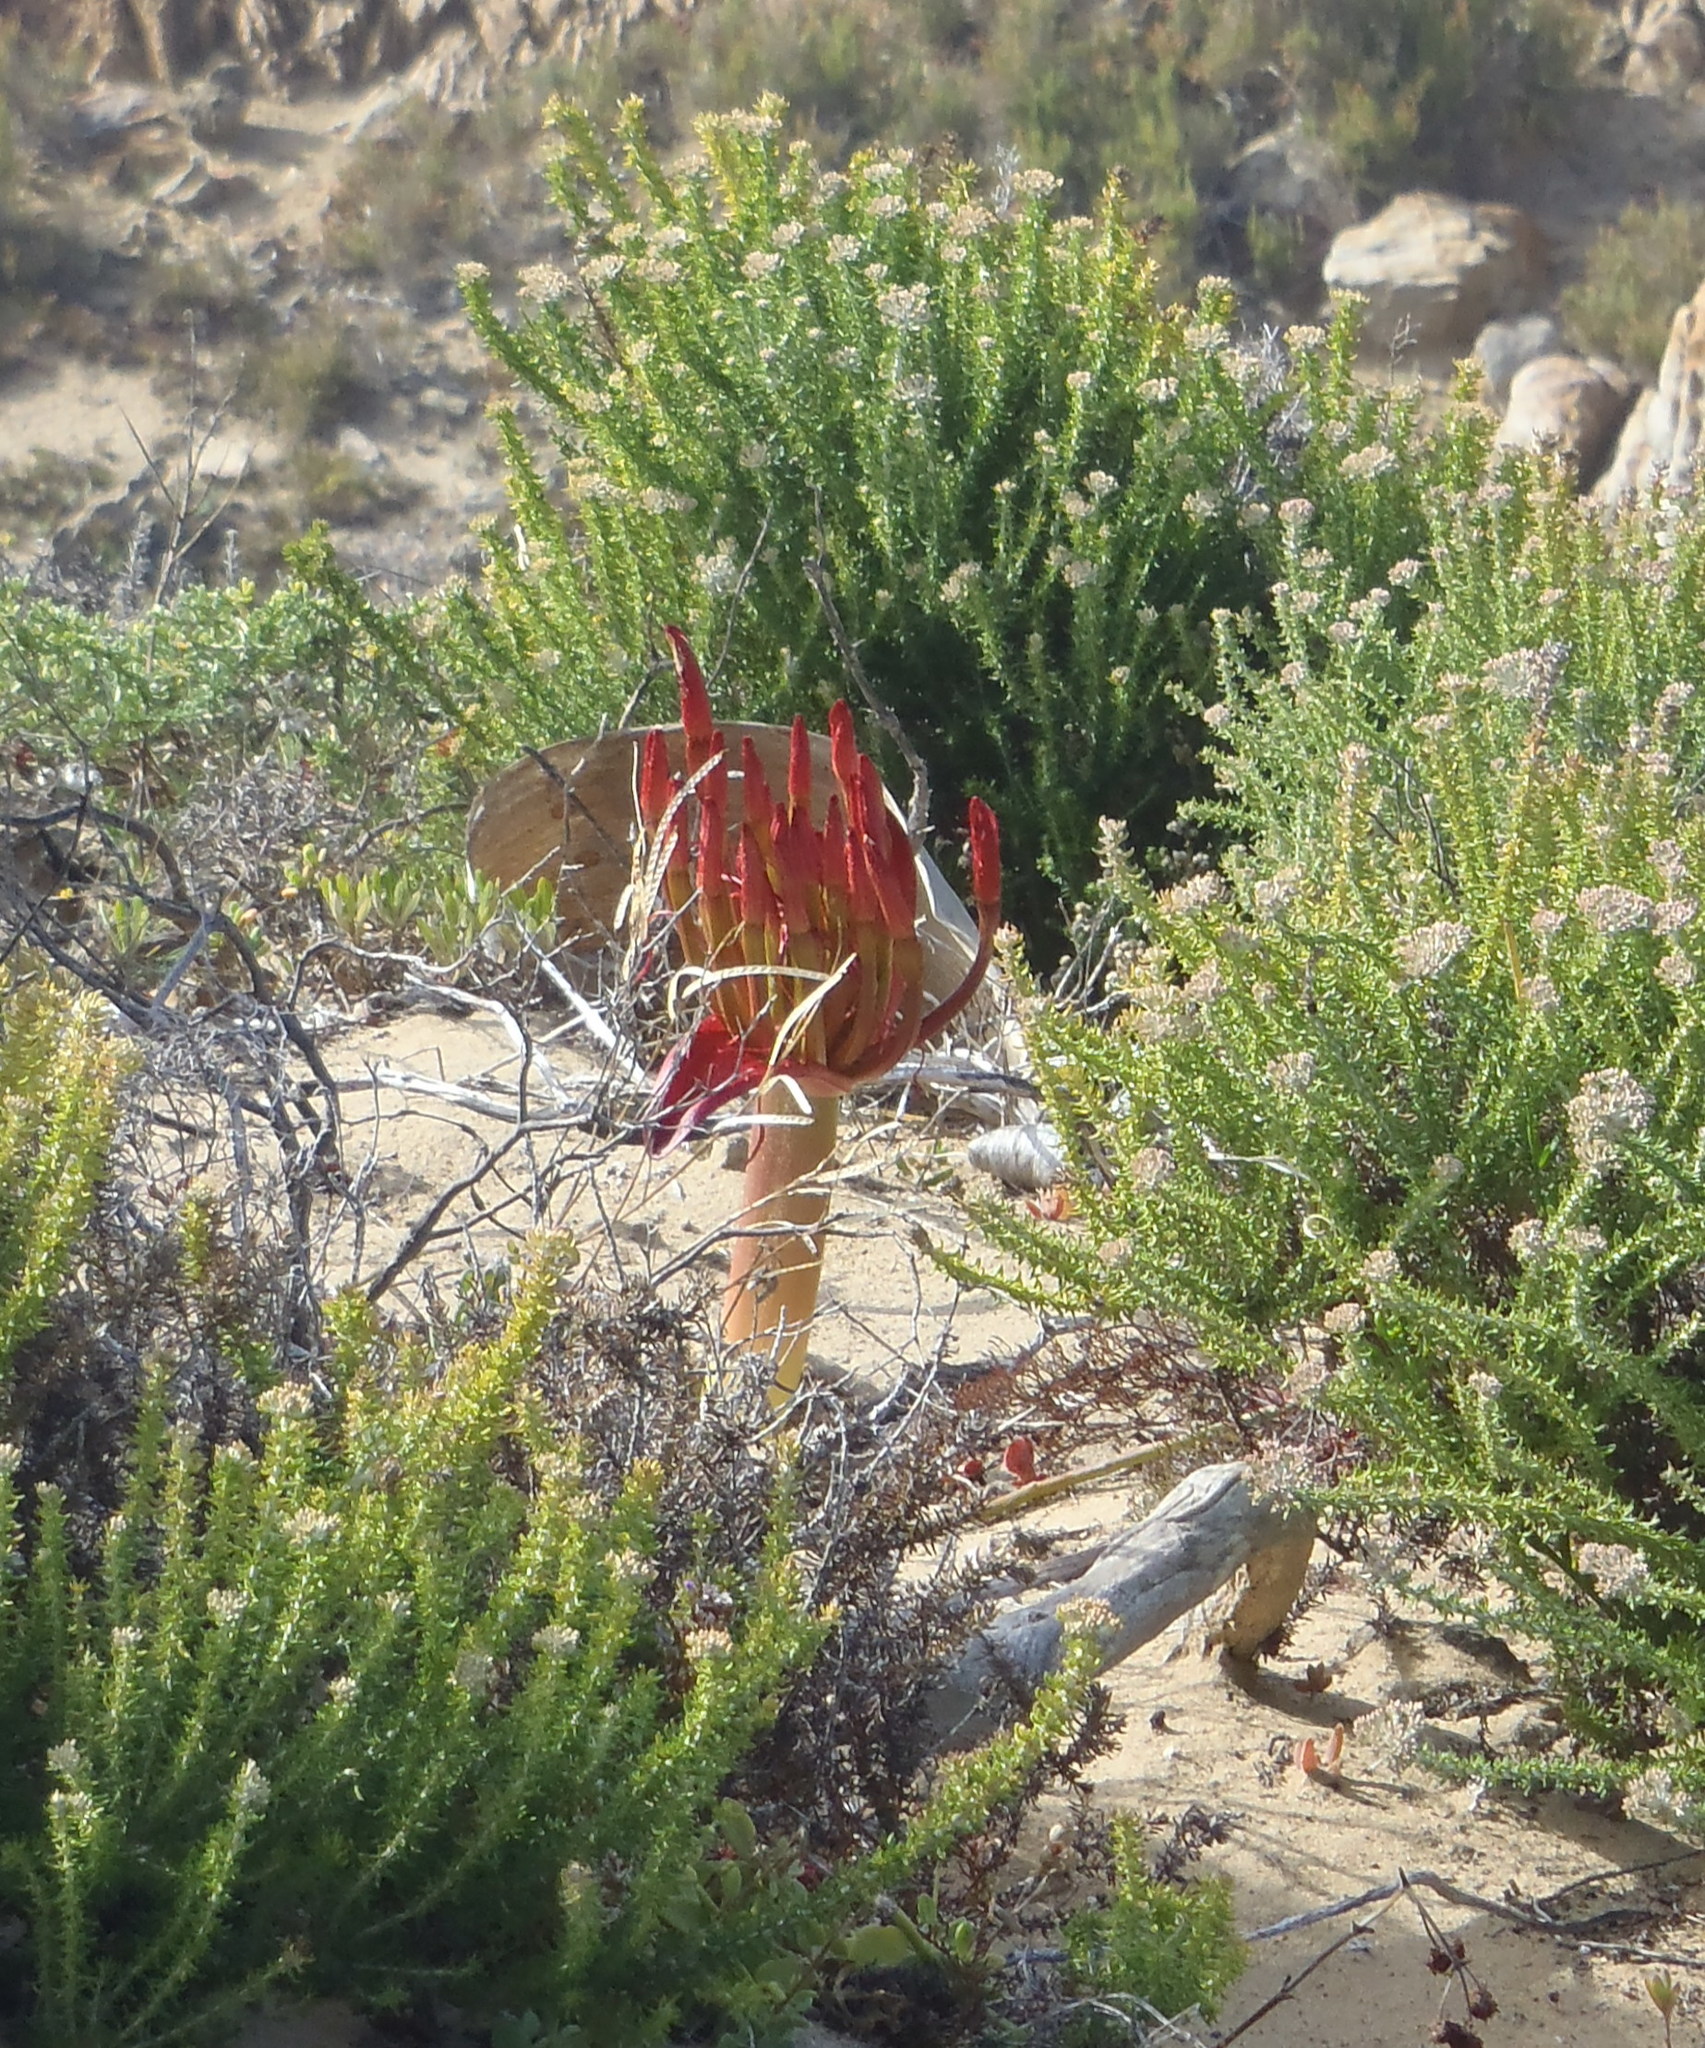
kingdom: Plantae
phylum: Tracheophyta
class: Liliopsida
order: Asparagales
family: Amaryllidaceae
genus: Brunsvigia
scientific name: Brunsvigia orientalis
